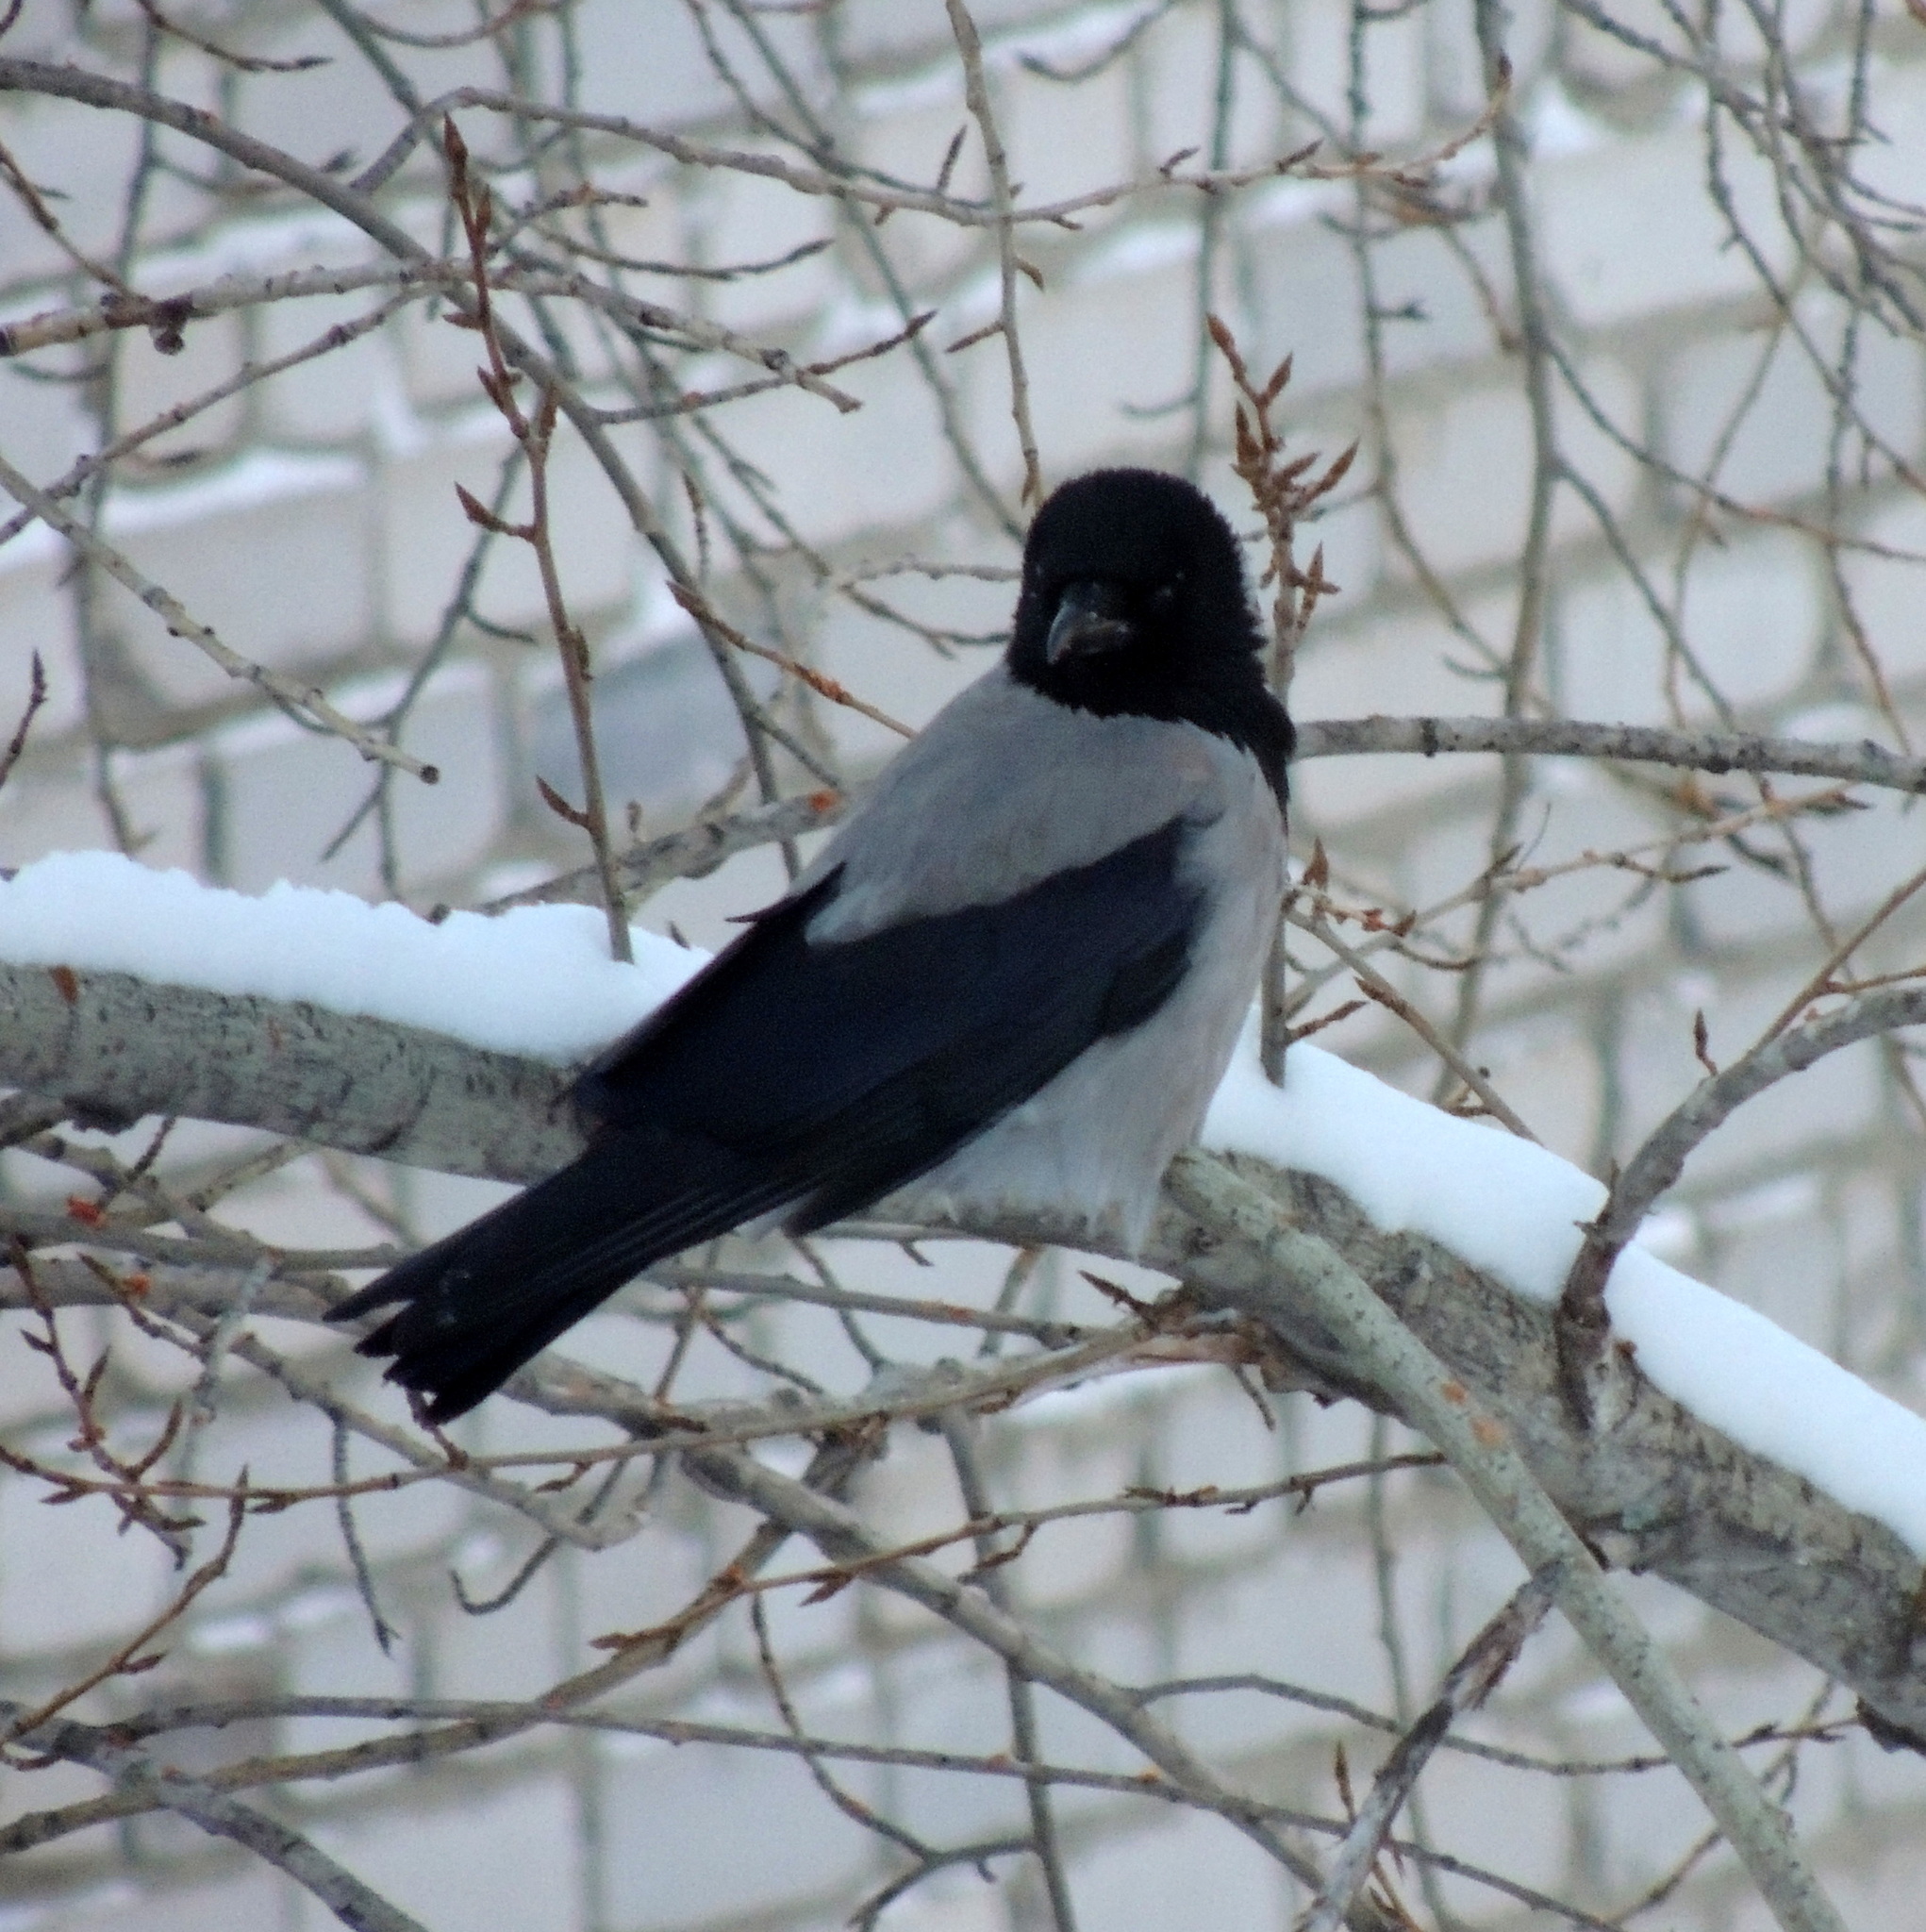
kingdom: Animalia
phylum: Chordata
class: Aves
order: Passeriformes
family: Corvidae
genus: Corvus
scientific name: Corvus cornix
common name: Hooded crow
